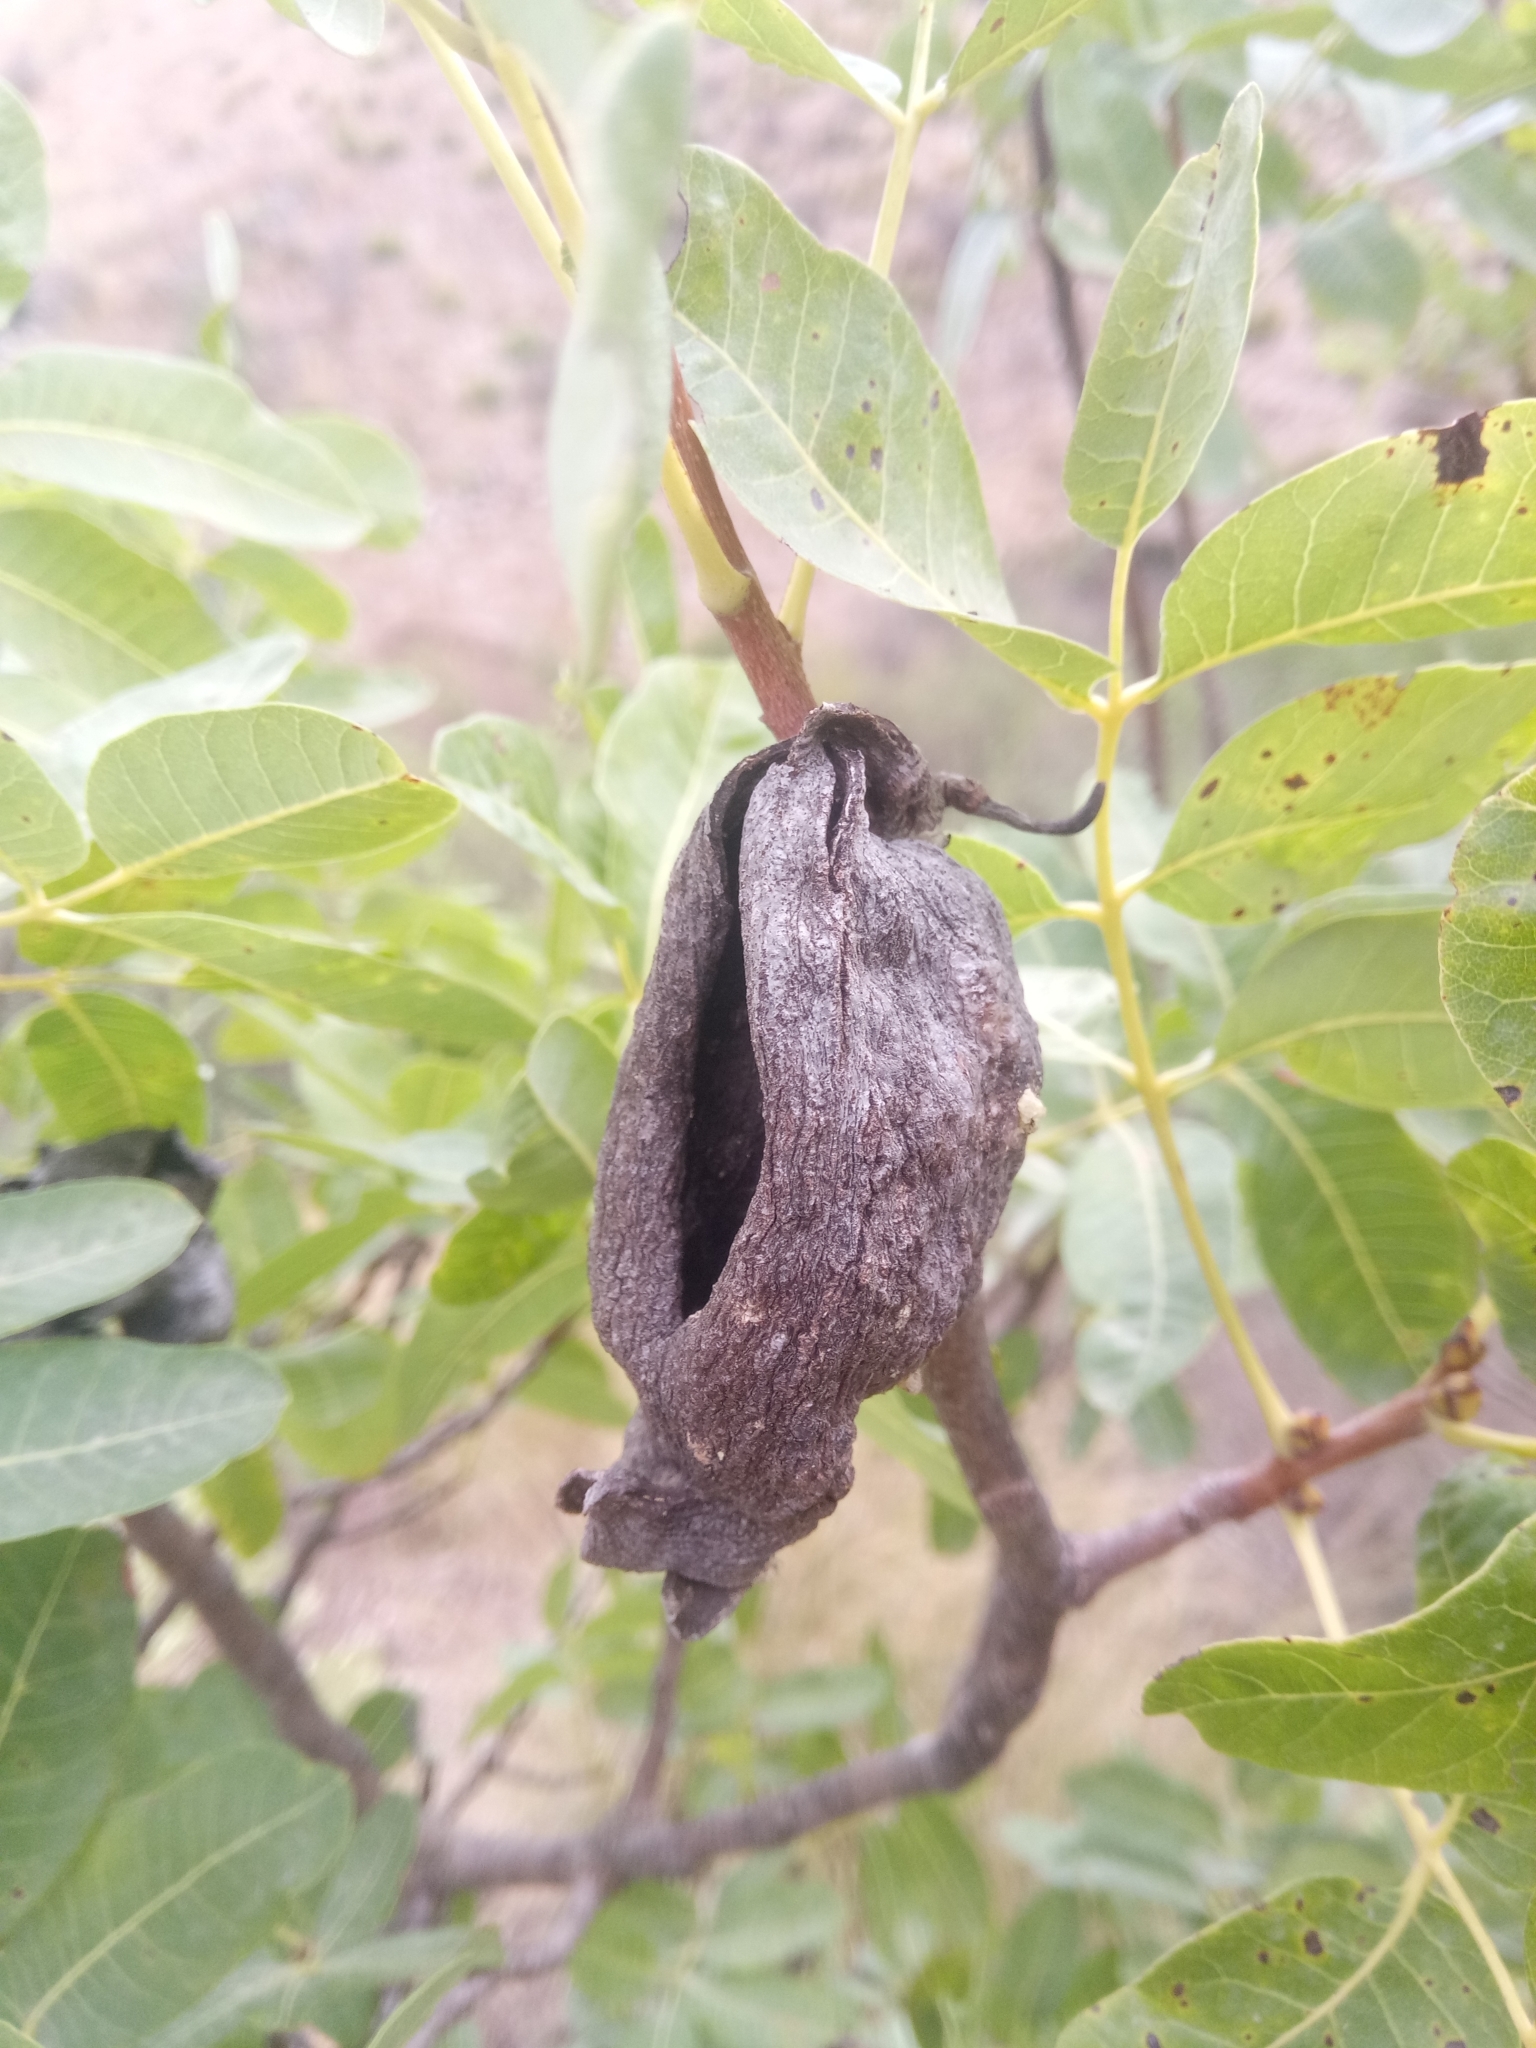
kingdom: Plantae
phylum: Tracheophyta
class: Magnoliopsida
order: Sapindales
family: Anacardiaceae
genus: Pistacia
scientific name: Pistacia terebinthus
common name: Terebinth
